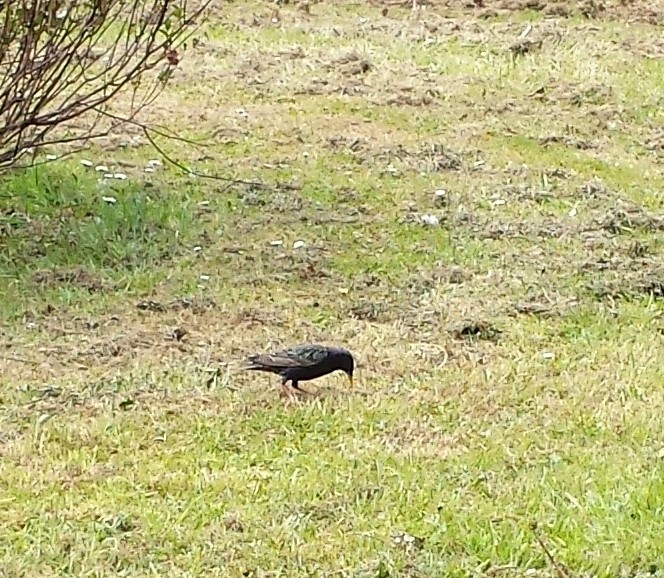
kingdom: Animalia
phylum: Chordata
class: Aves
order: Passeriformes
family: Sturnidae
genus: Sturnus
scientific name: Sturnus vulgaris
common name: Common starling
